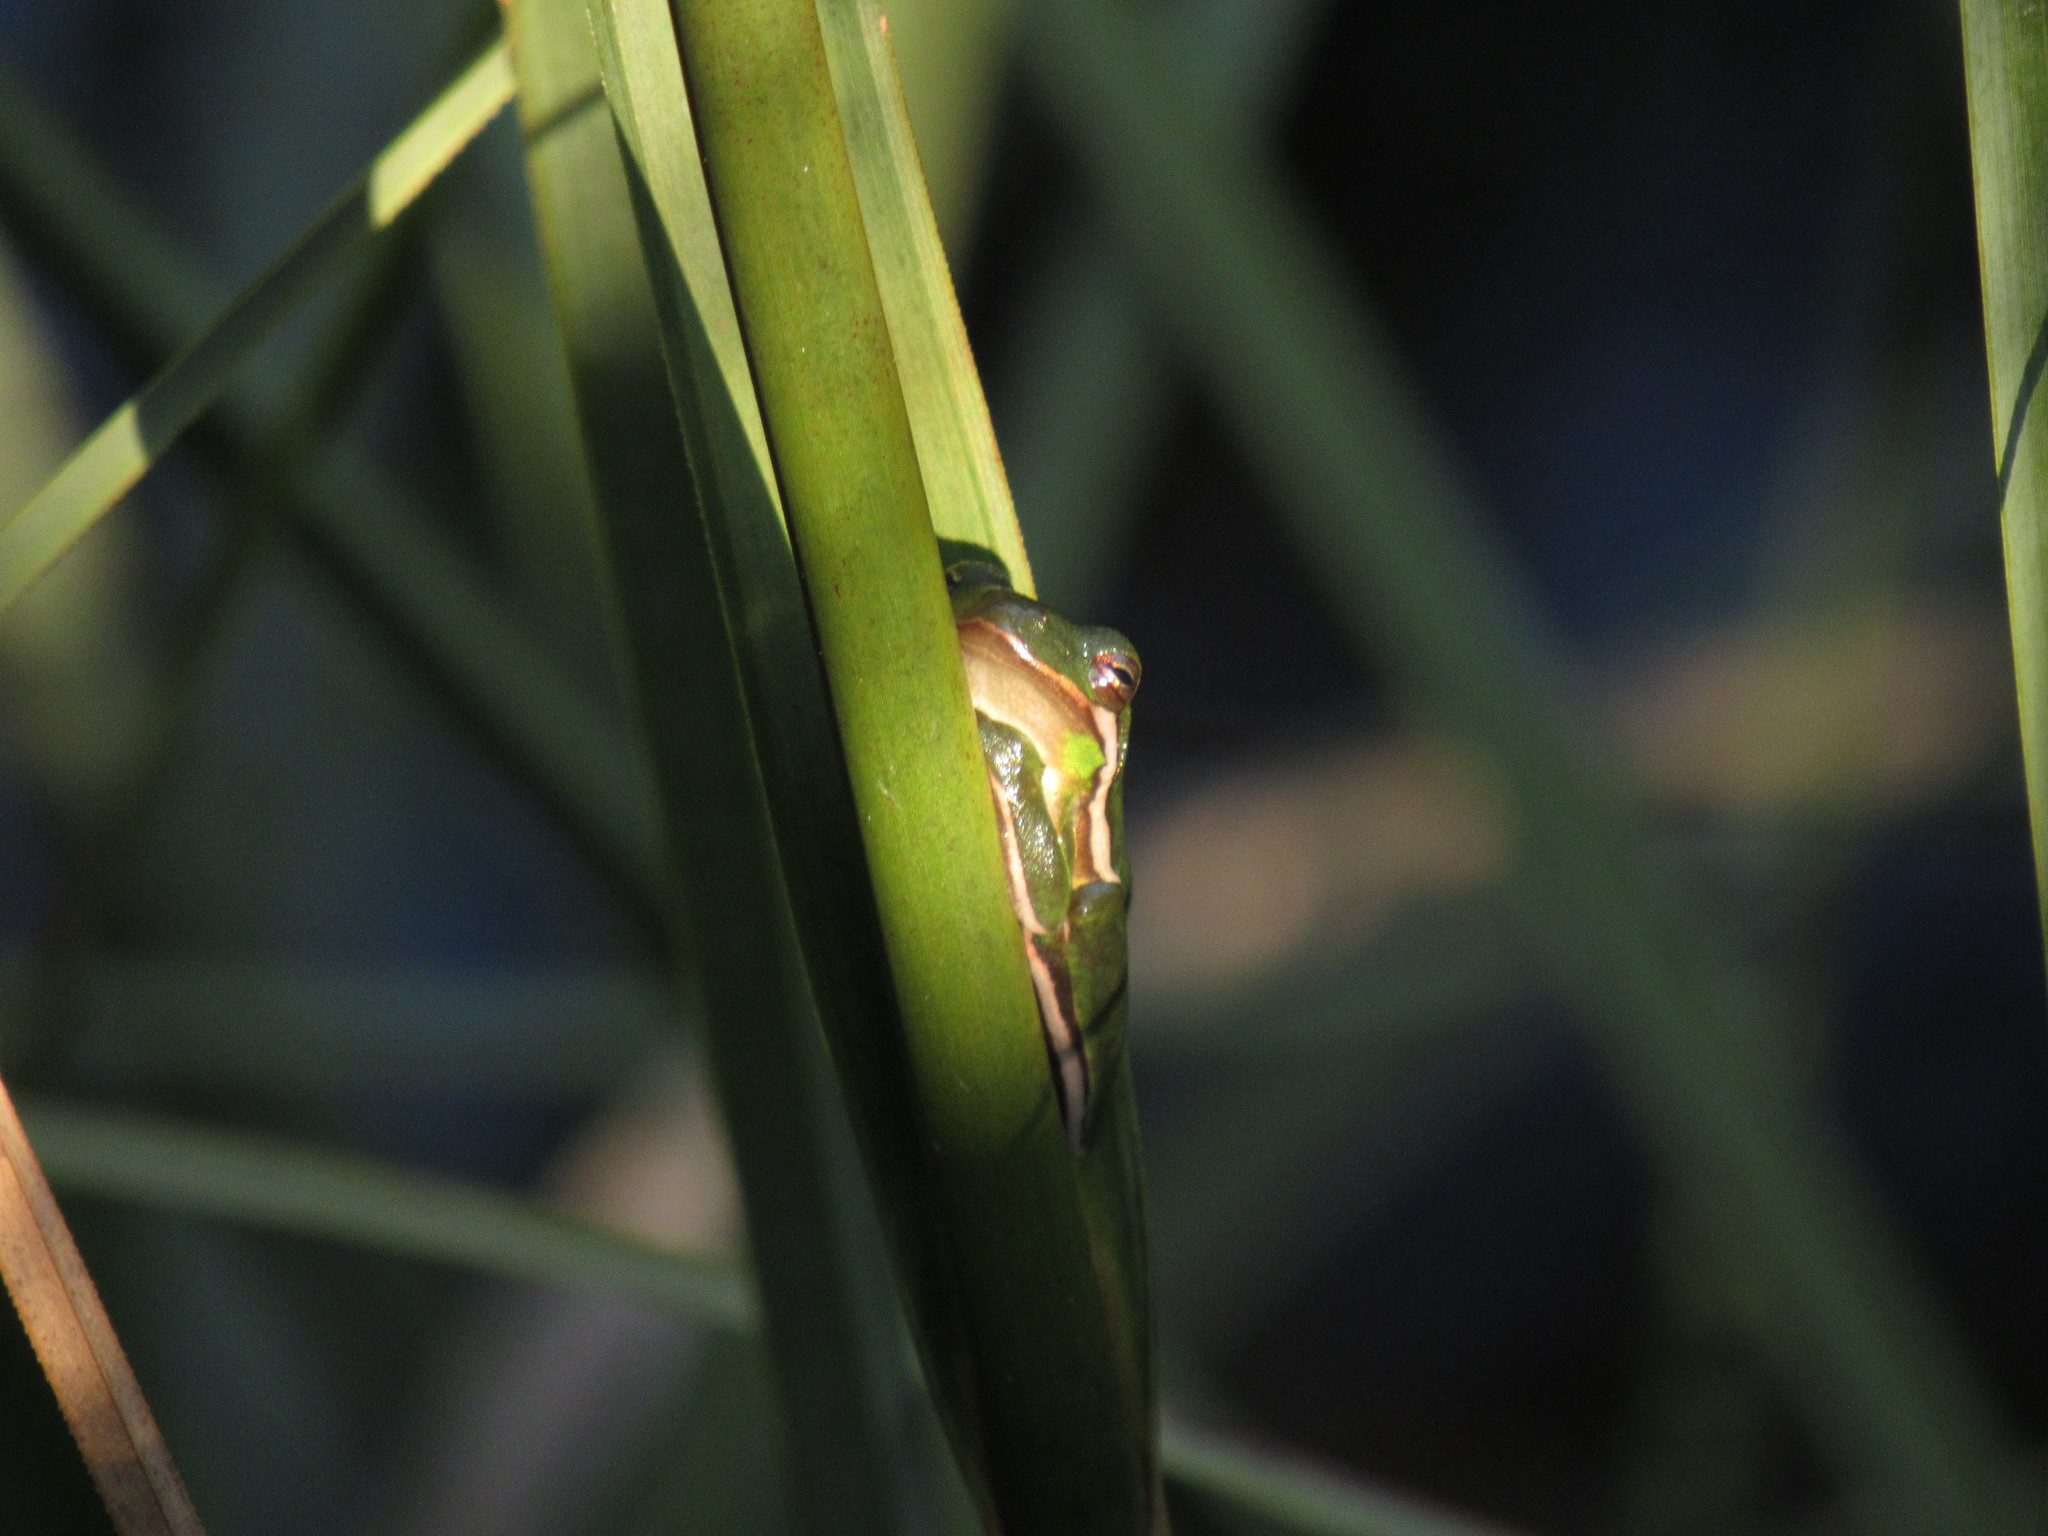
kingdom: Animalia
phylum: Chordata
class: Amphibia
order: Anura
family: Hylidae
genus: Dryophytes
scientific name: Dryophytes cinereus
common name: Green treefrog
